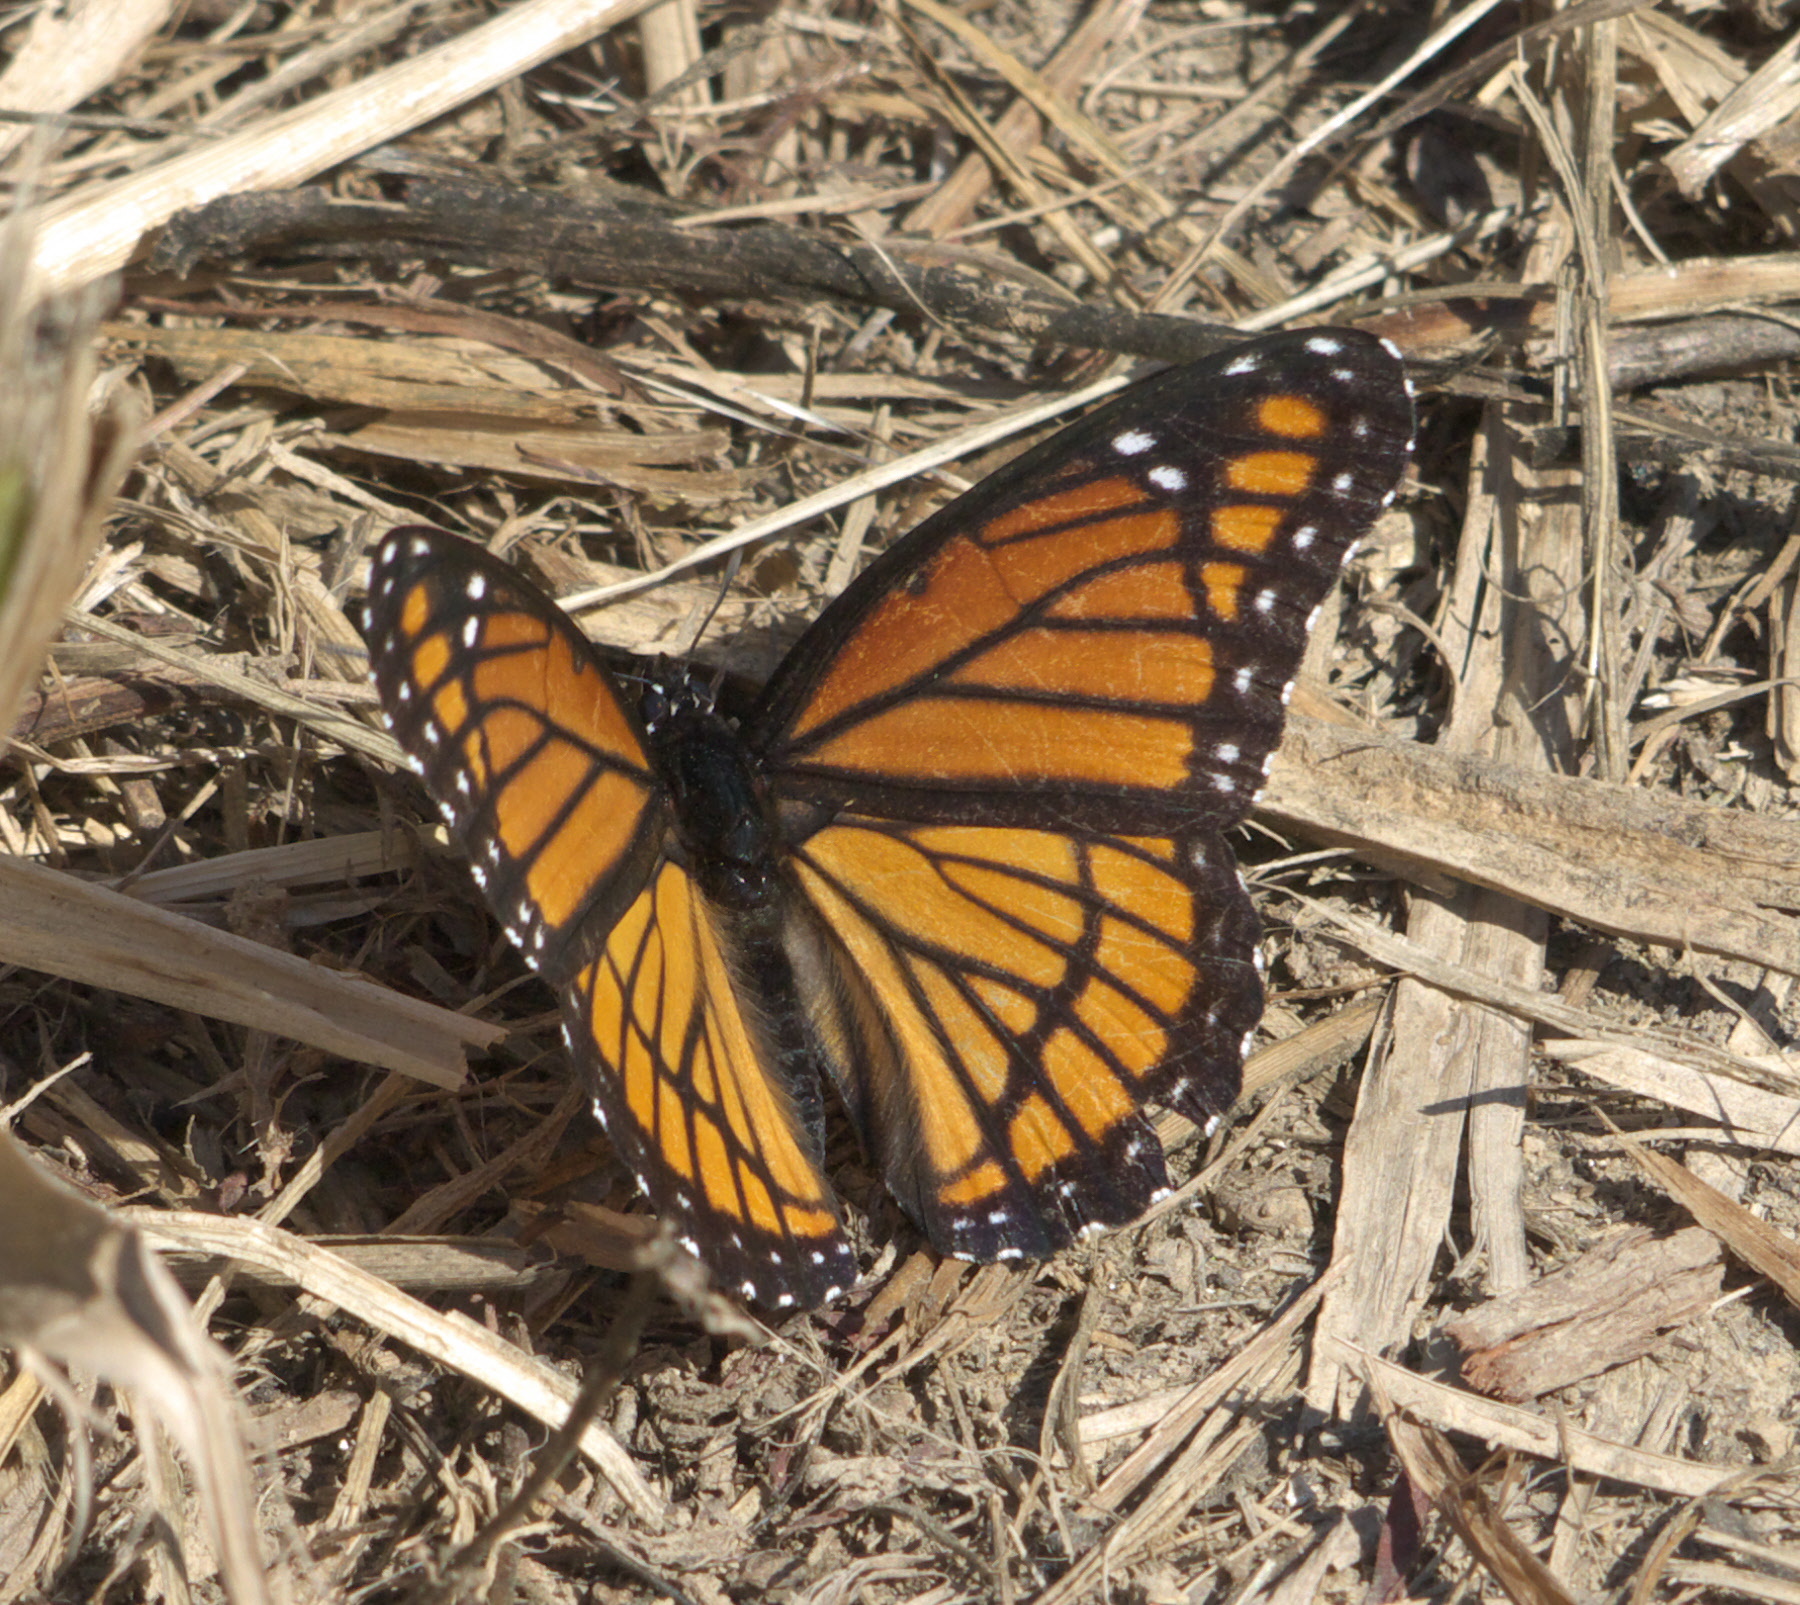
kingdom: Animalia
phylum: Arthropoda
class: Insecta
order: Lepidoptera
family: Nymphalidae
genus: Limenitis
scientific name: Limenitis archippus
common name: Viceroy
